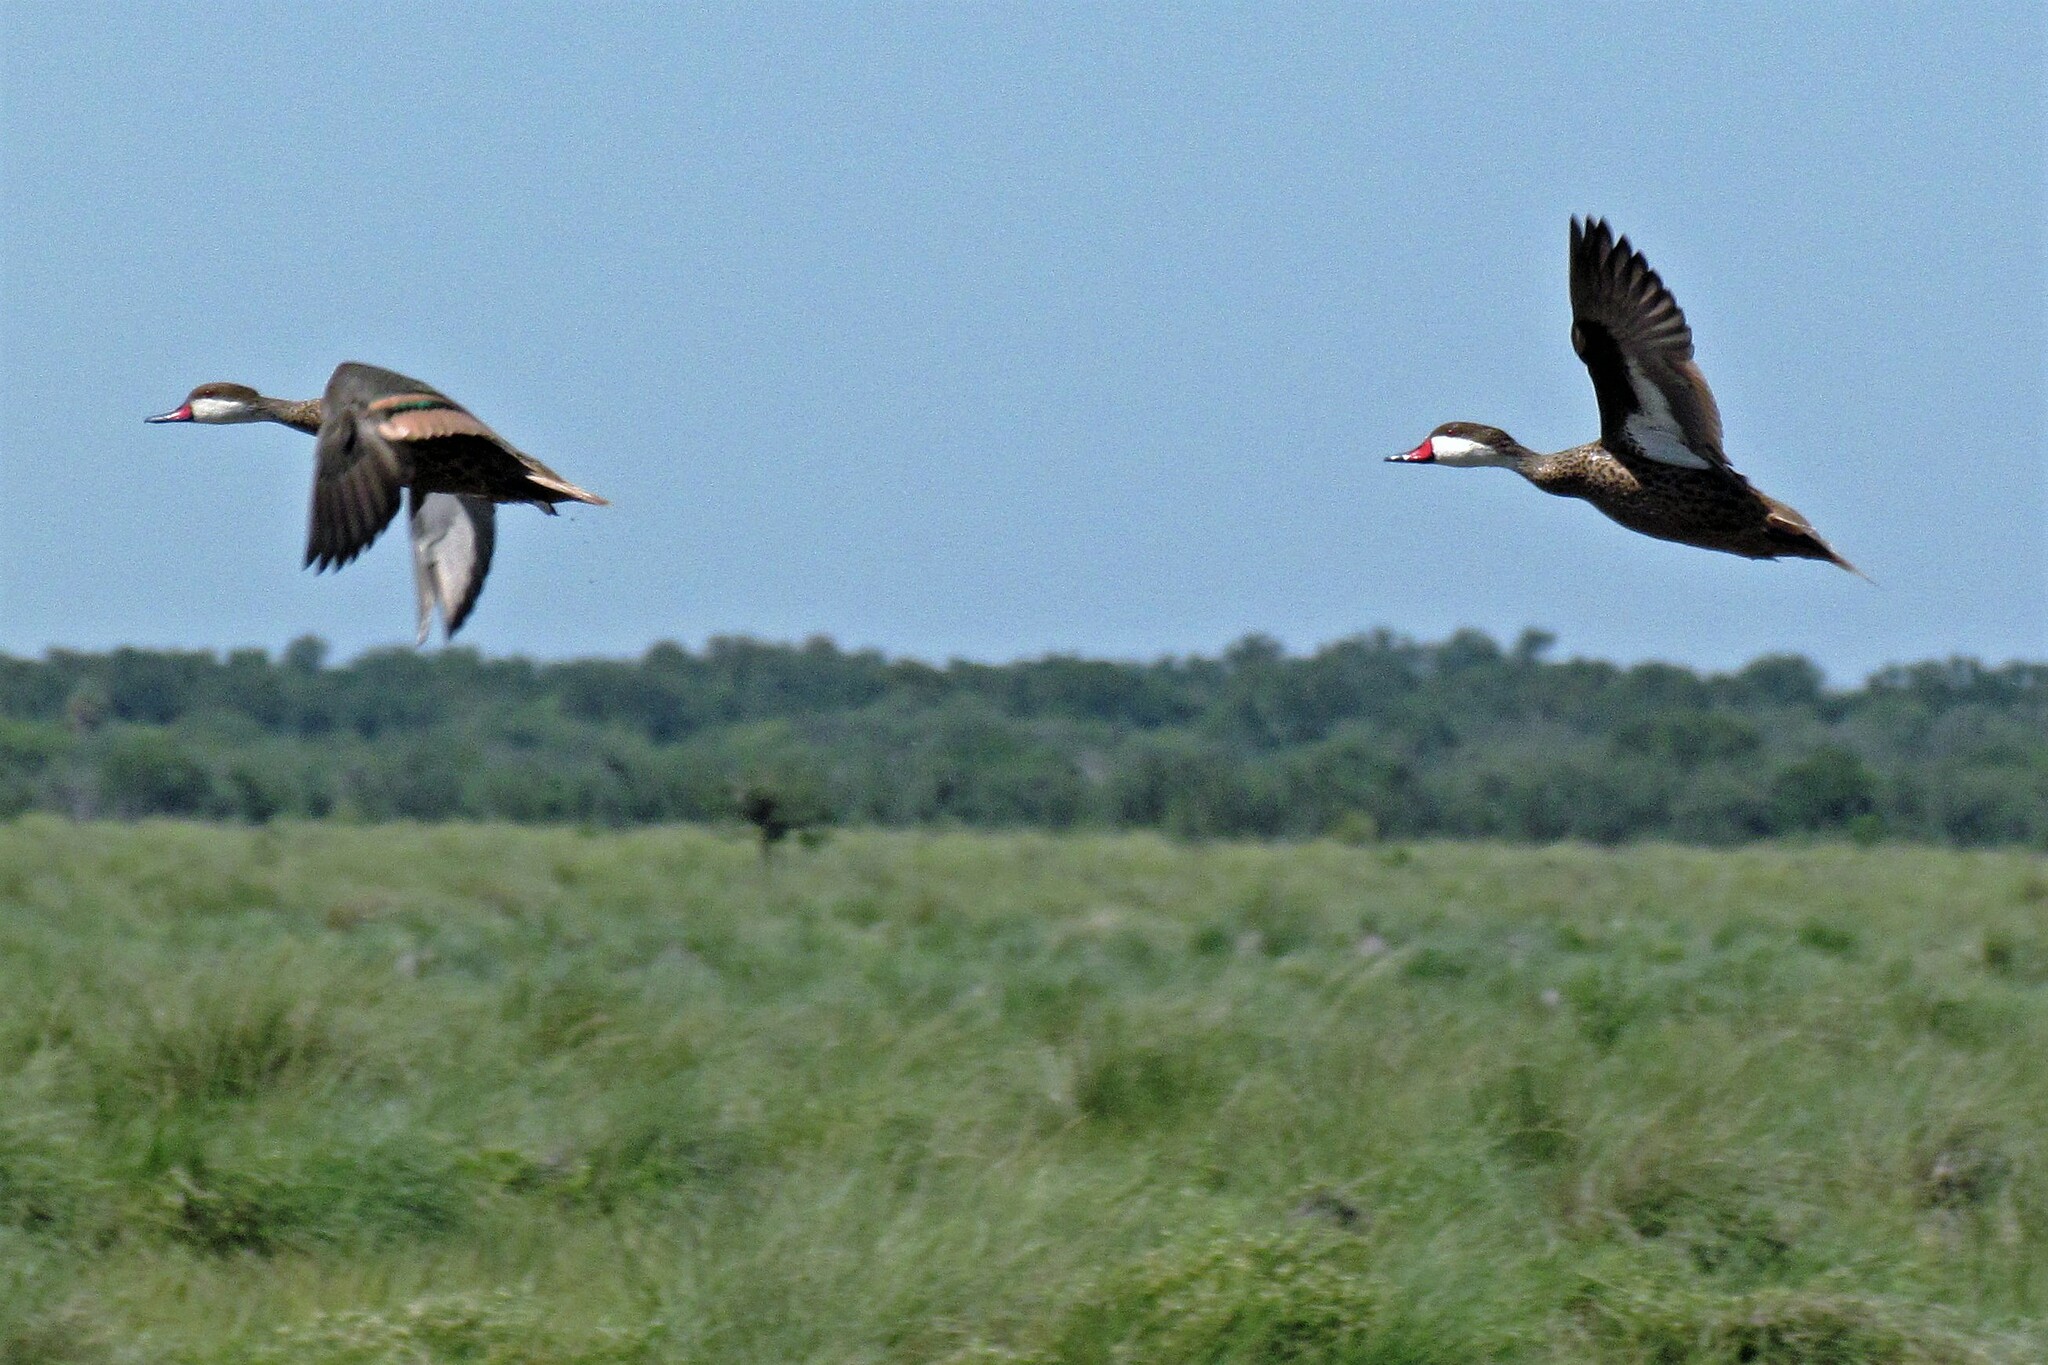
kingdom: Animalia
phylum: Chordata
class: Aves
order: Anseriformes
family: Anatidae
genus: Anas
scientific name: Anas bahamensis
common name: White-cheeked pintail
